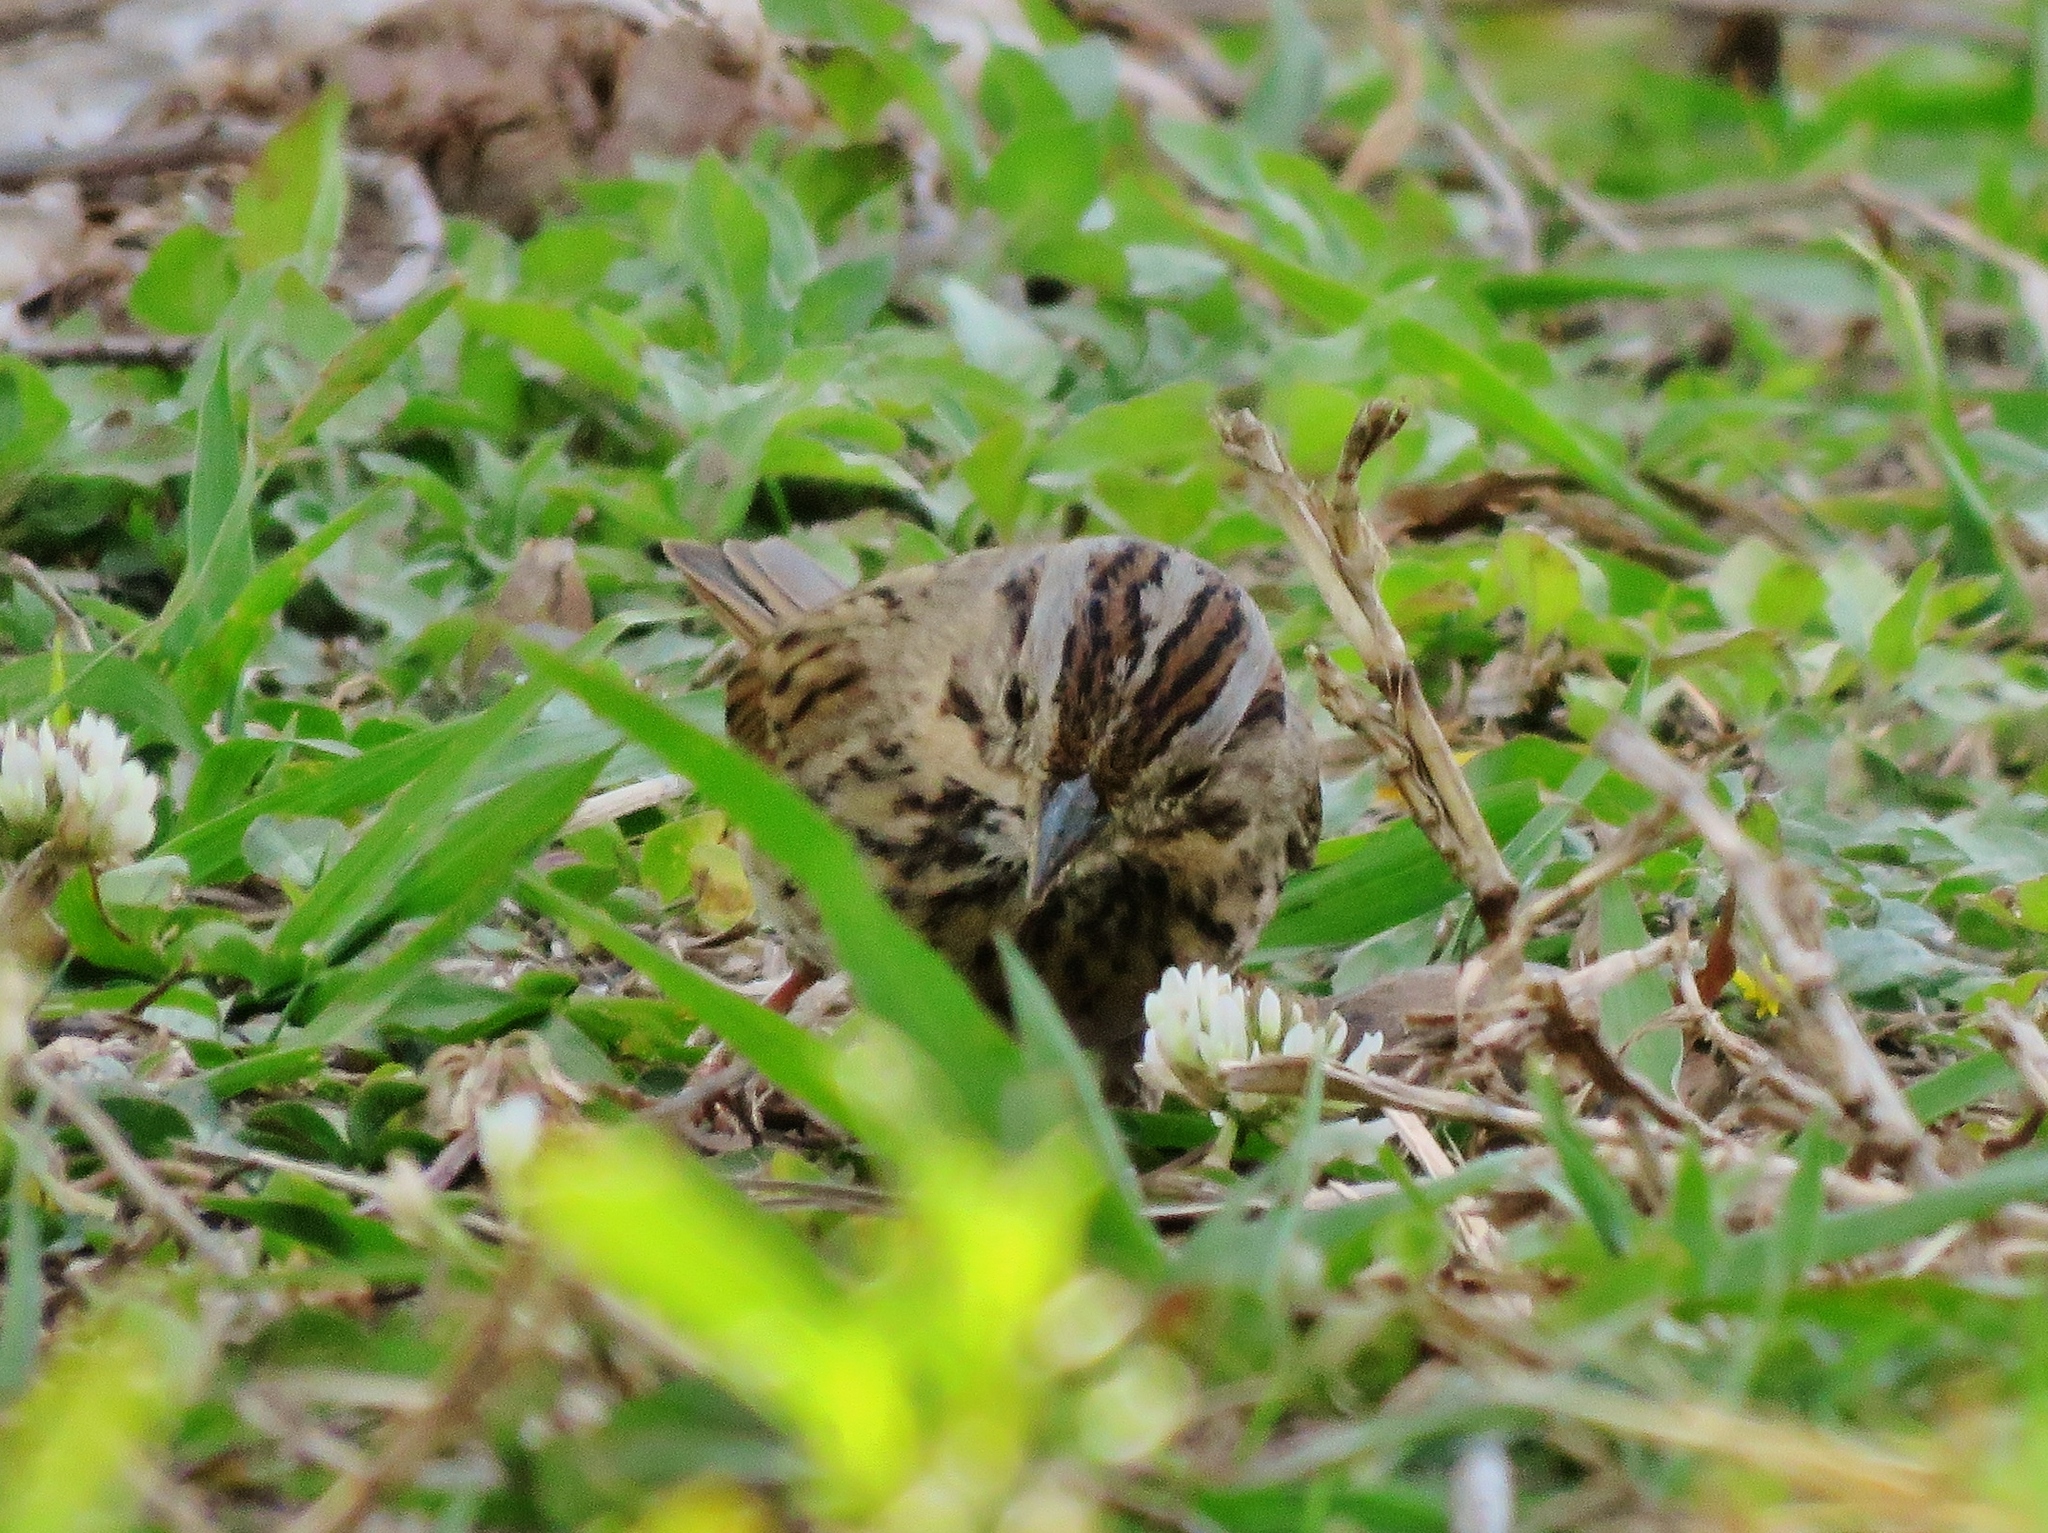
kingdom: Animalia
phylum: Chordata
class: Aves
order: Passeriformes
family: Passerellidae
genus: Melospiza
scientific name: Melospiza lincolnii
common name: Lincoln's sparrow
